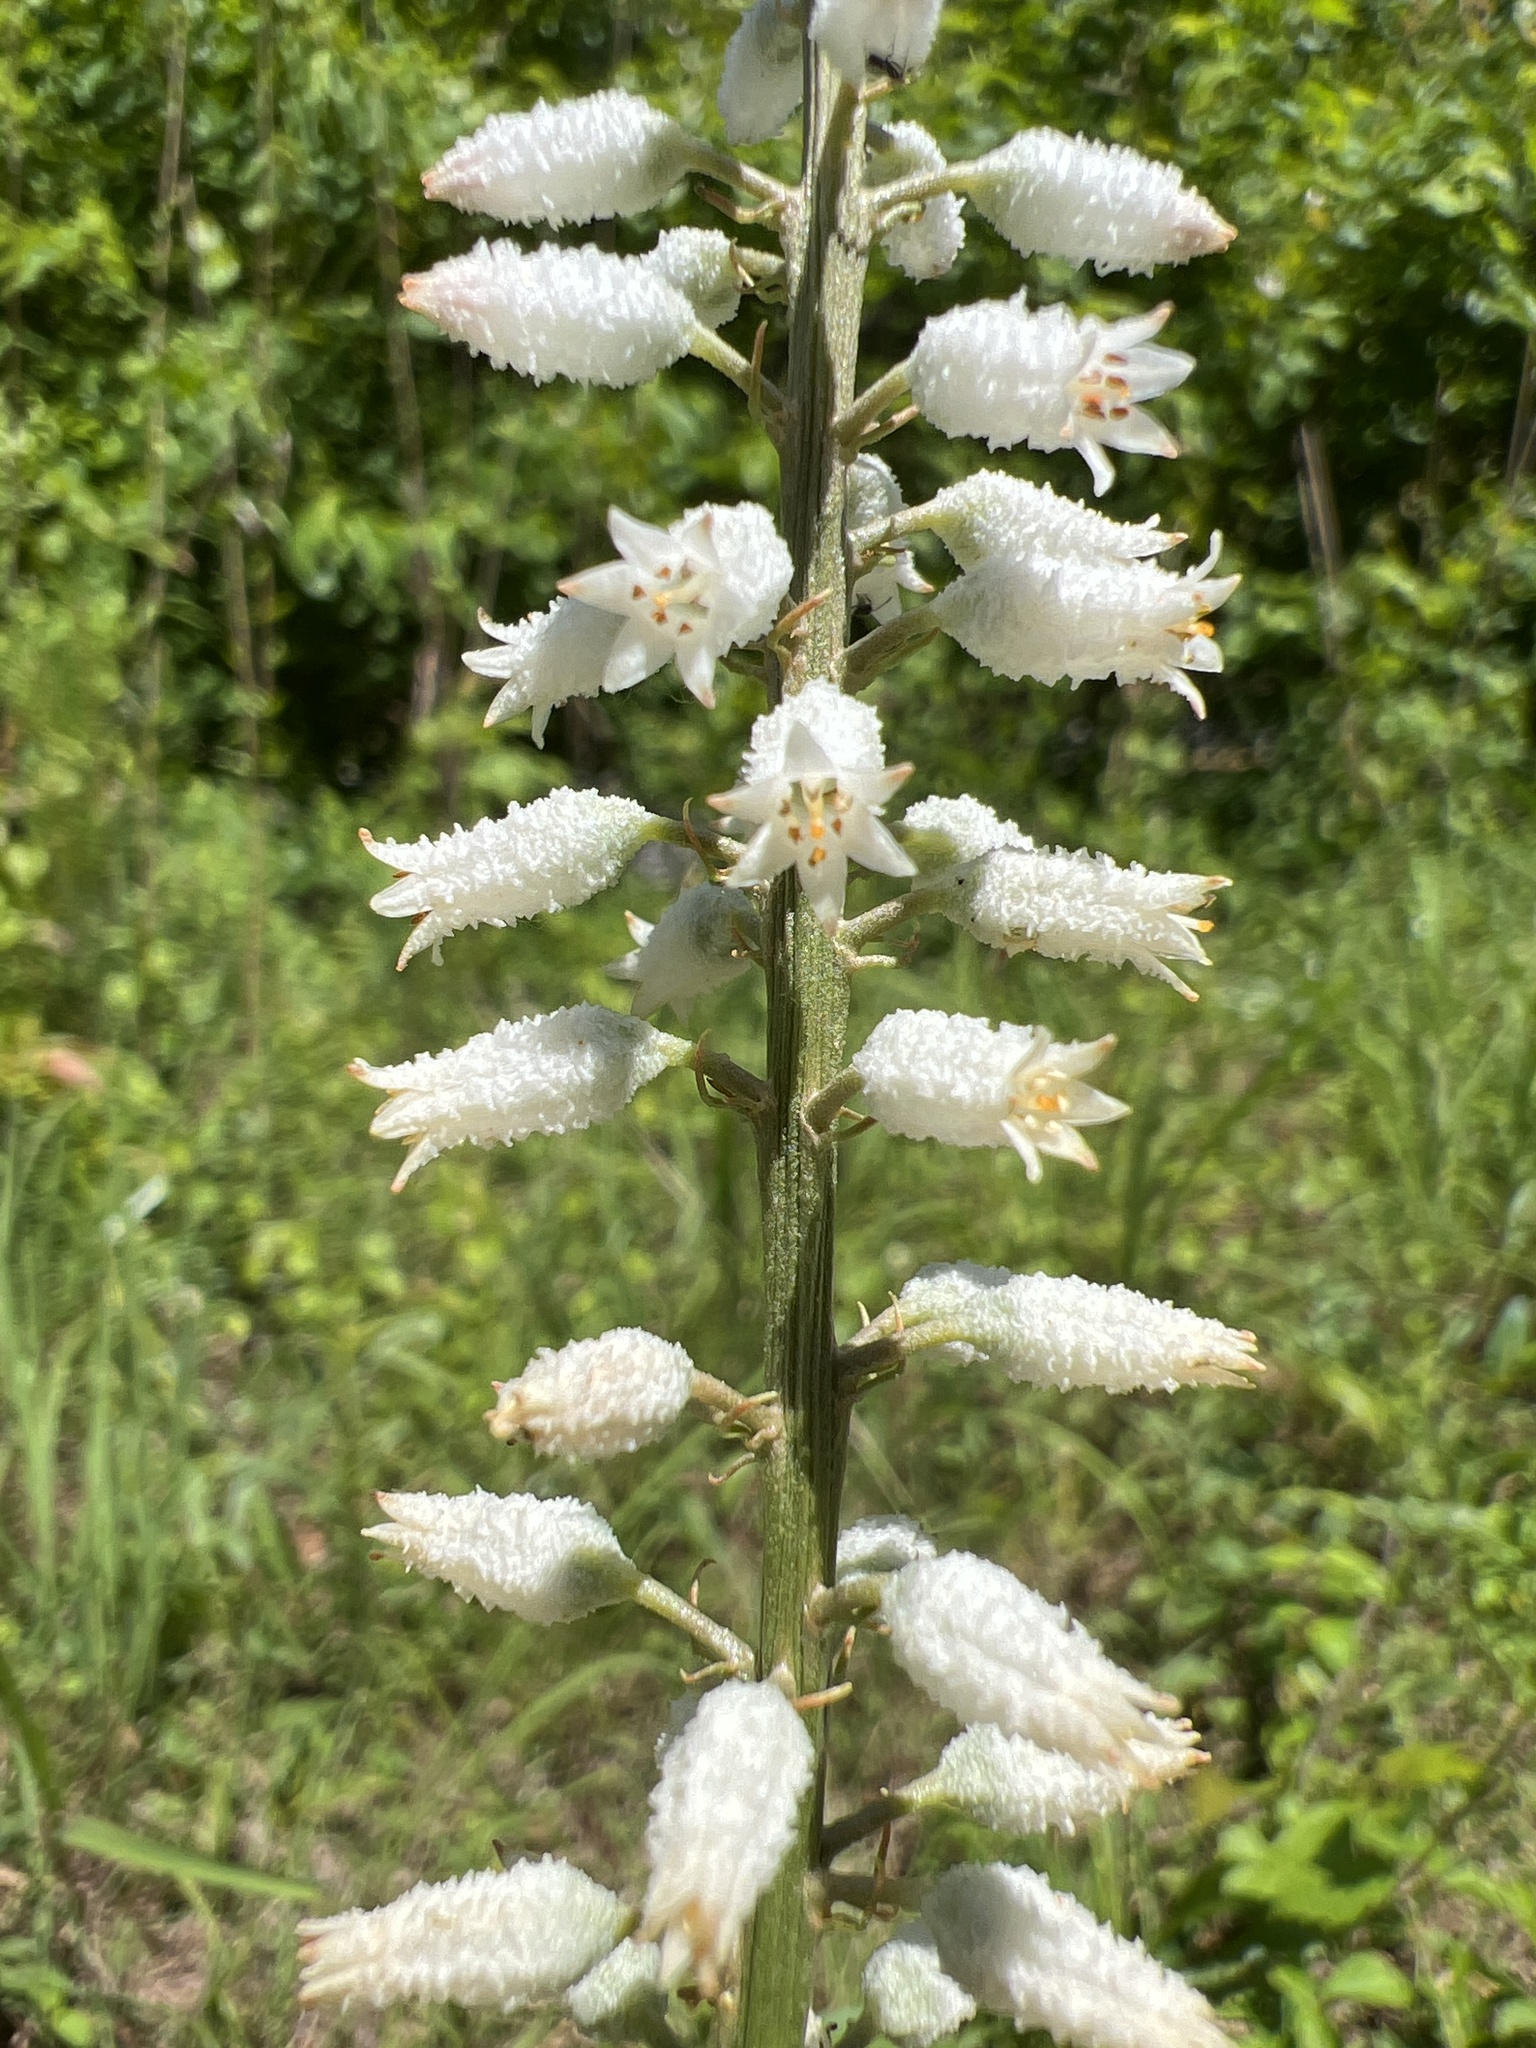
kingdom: Plantae
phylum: Tracheophyta
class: Liliopsida
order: Dioscoreales
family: Nartheciaceae
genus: Aletris
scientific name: Aletris farinosa
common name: Colicroot
